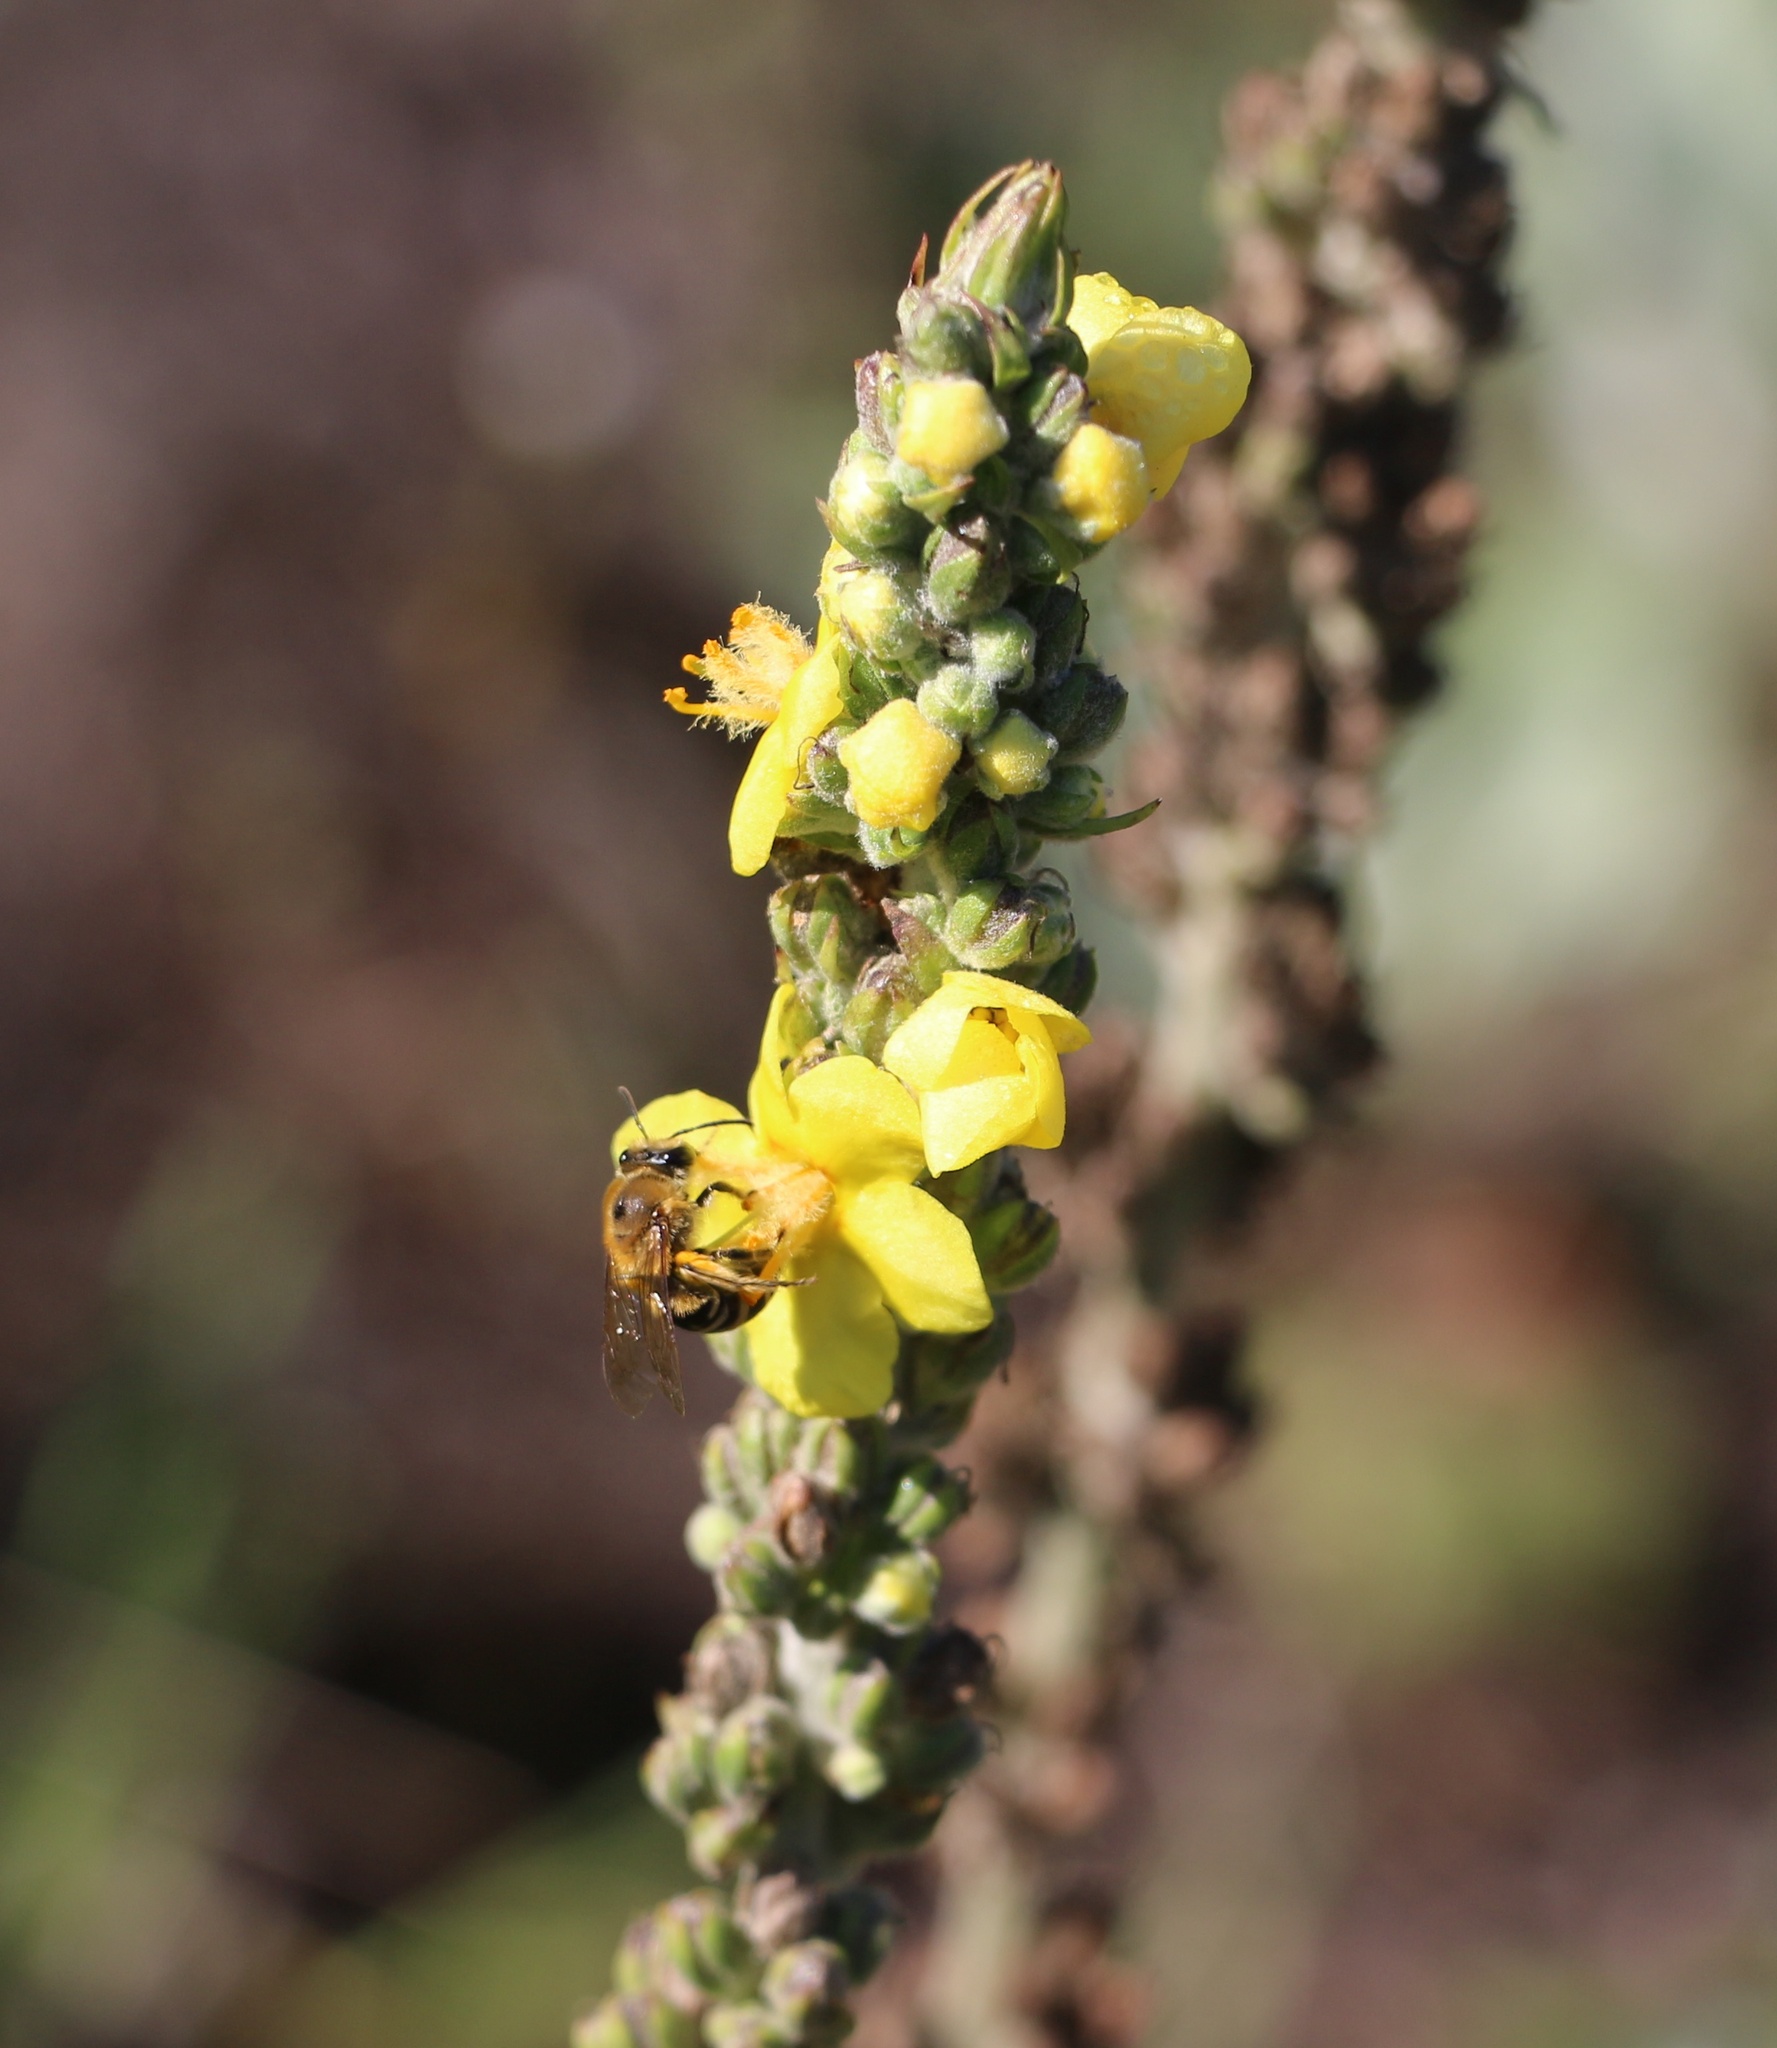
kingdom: Plantae
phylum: Tracheophyta
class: Magnoliopsida
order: Lamiales
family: Scrophulariaceae
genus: Verbascum
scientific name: Verbascum gnaphalodes
